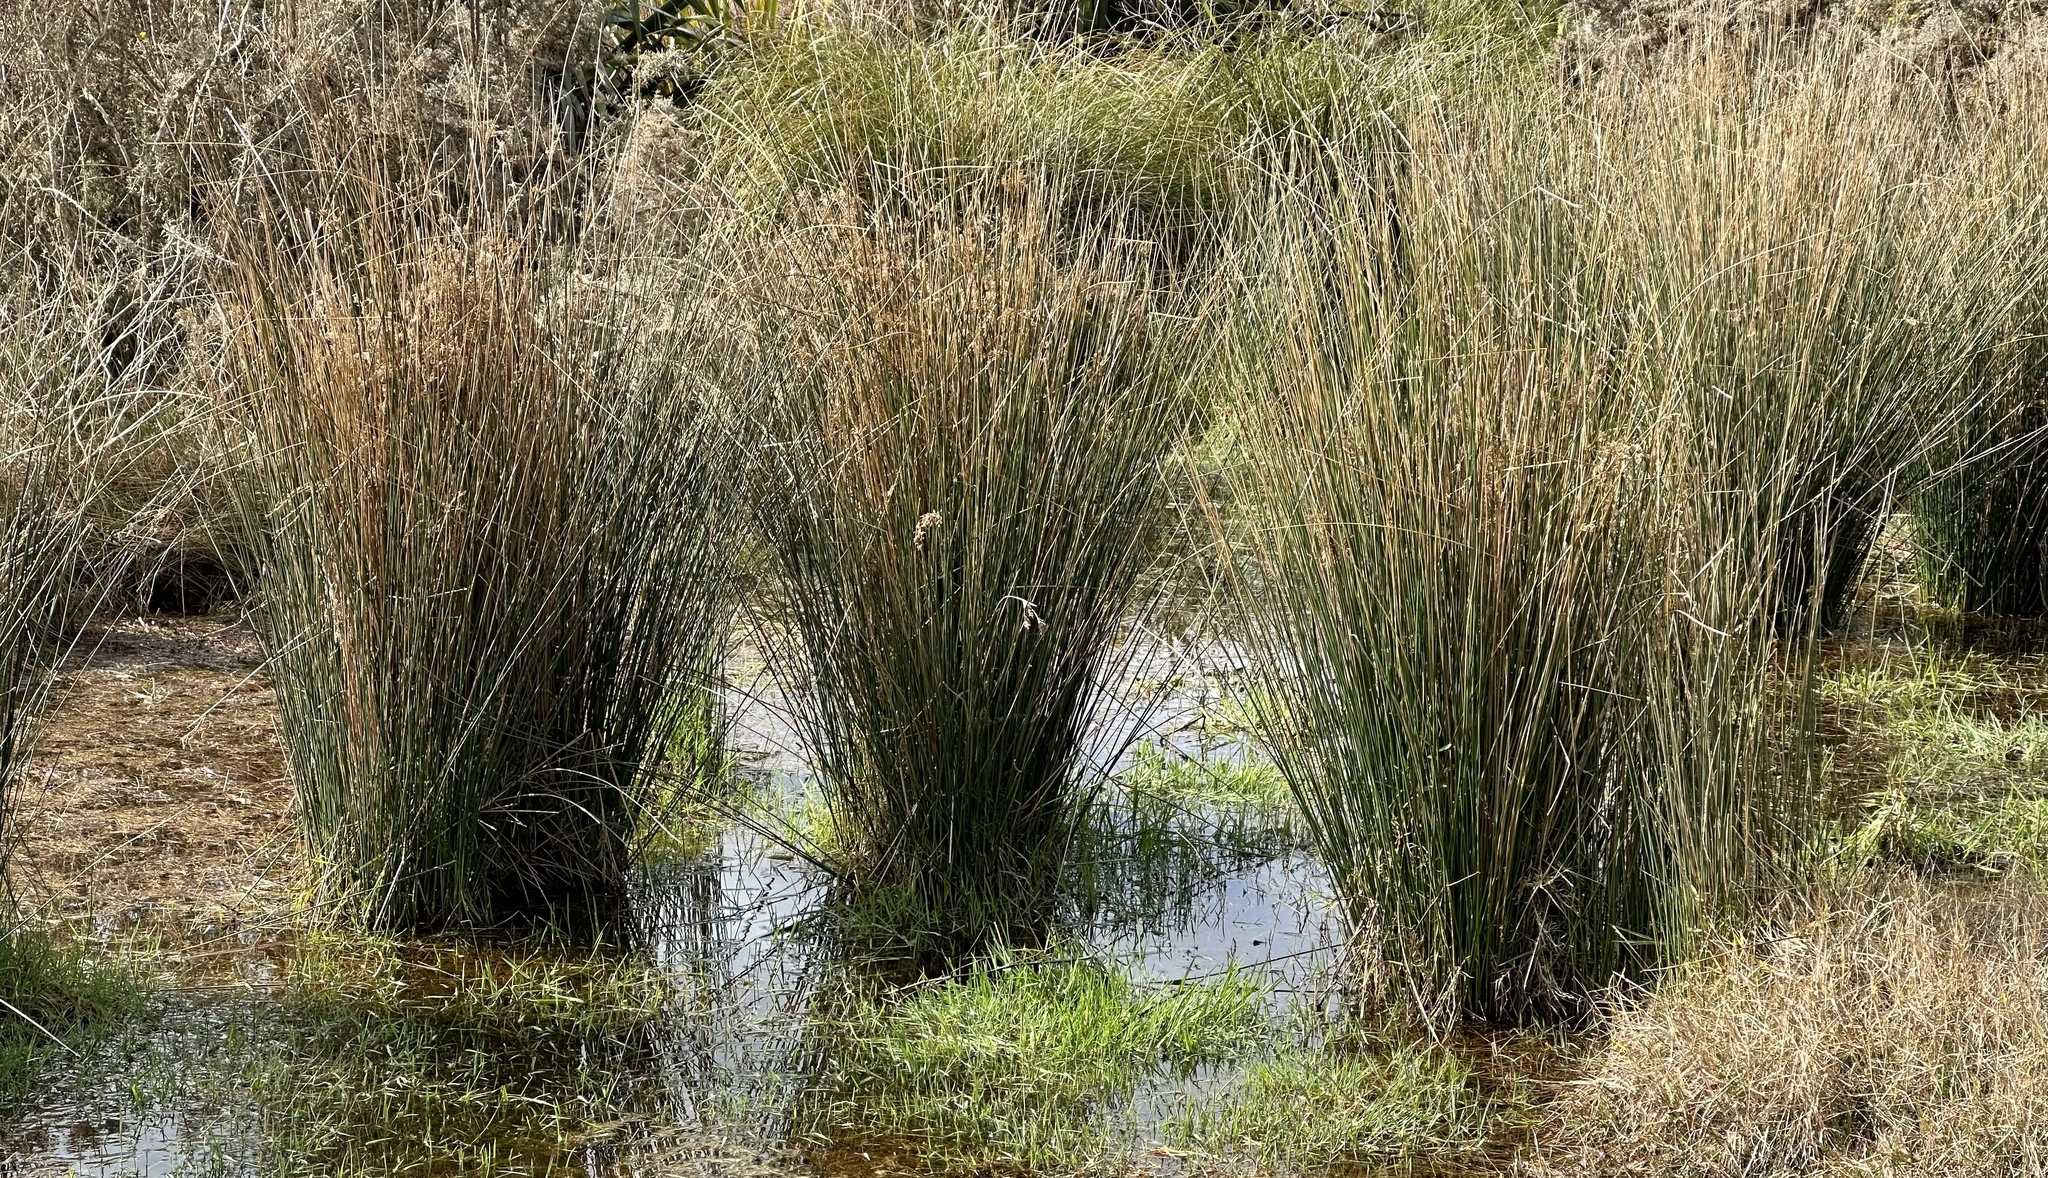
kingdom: Plantae
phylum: Tracheophyta
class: Liliopsida
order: Poales
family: Juncaceae
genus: Juncus
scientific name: Juncus sarophorus
